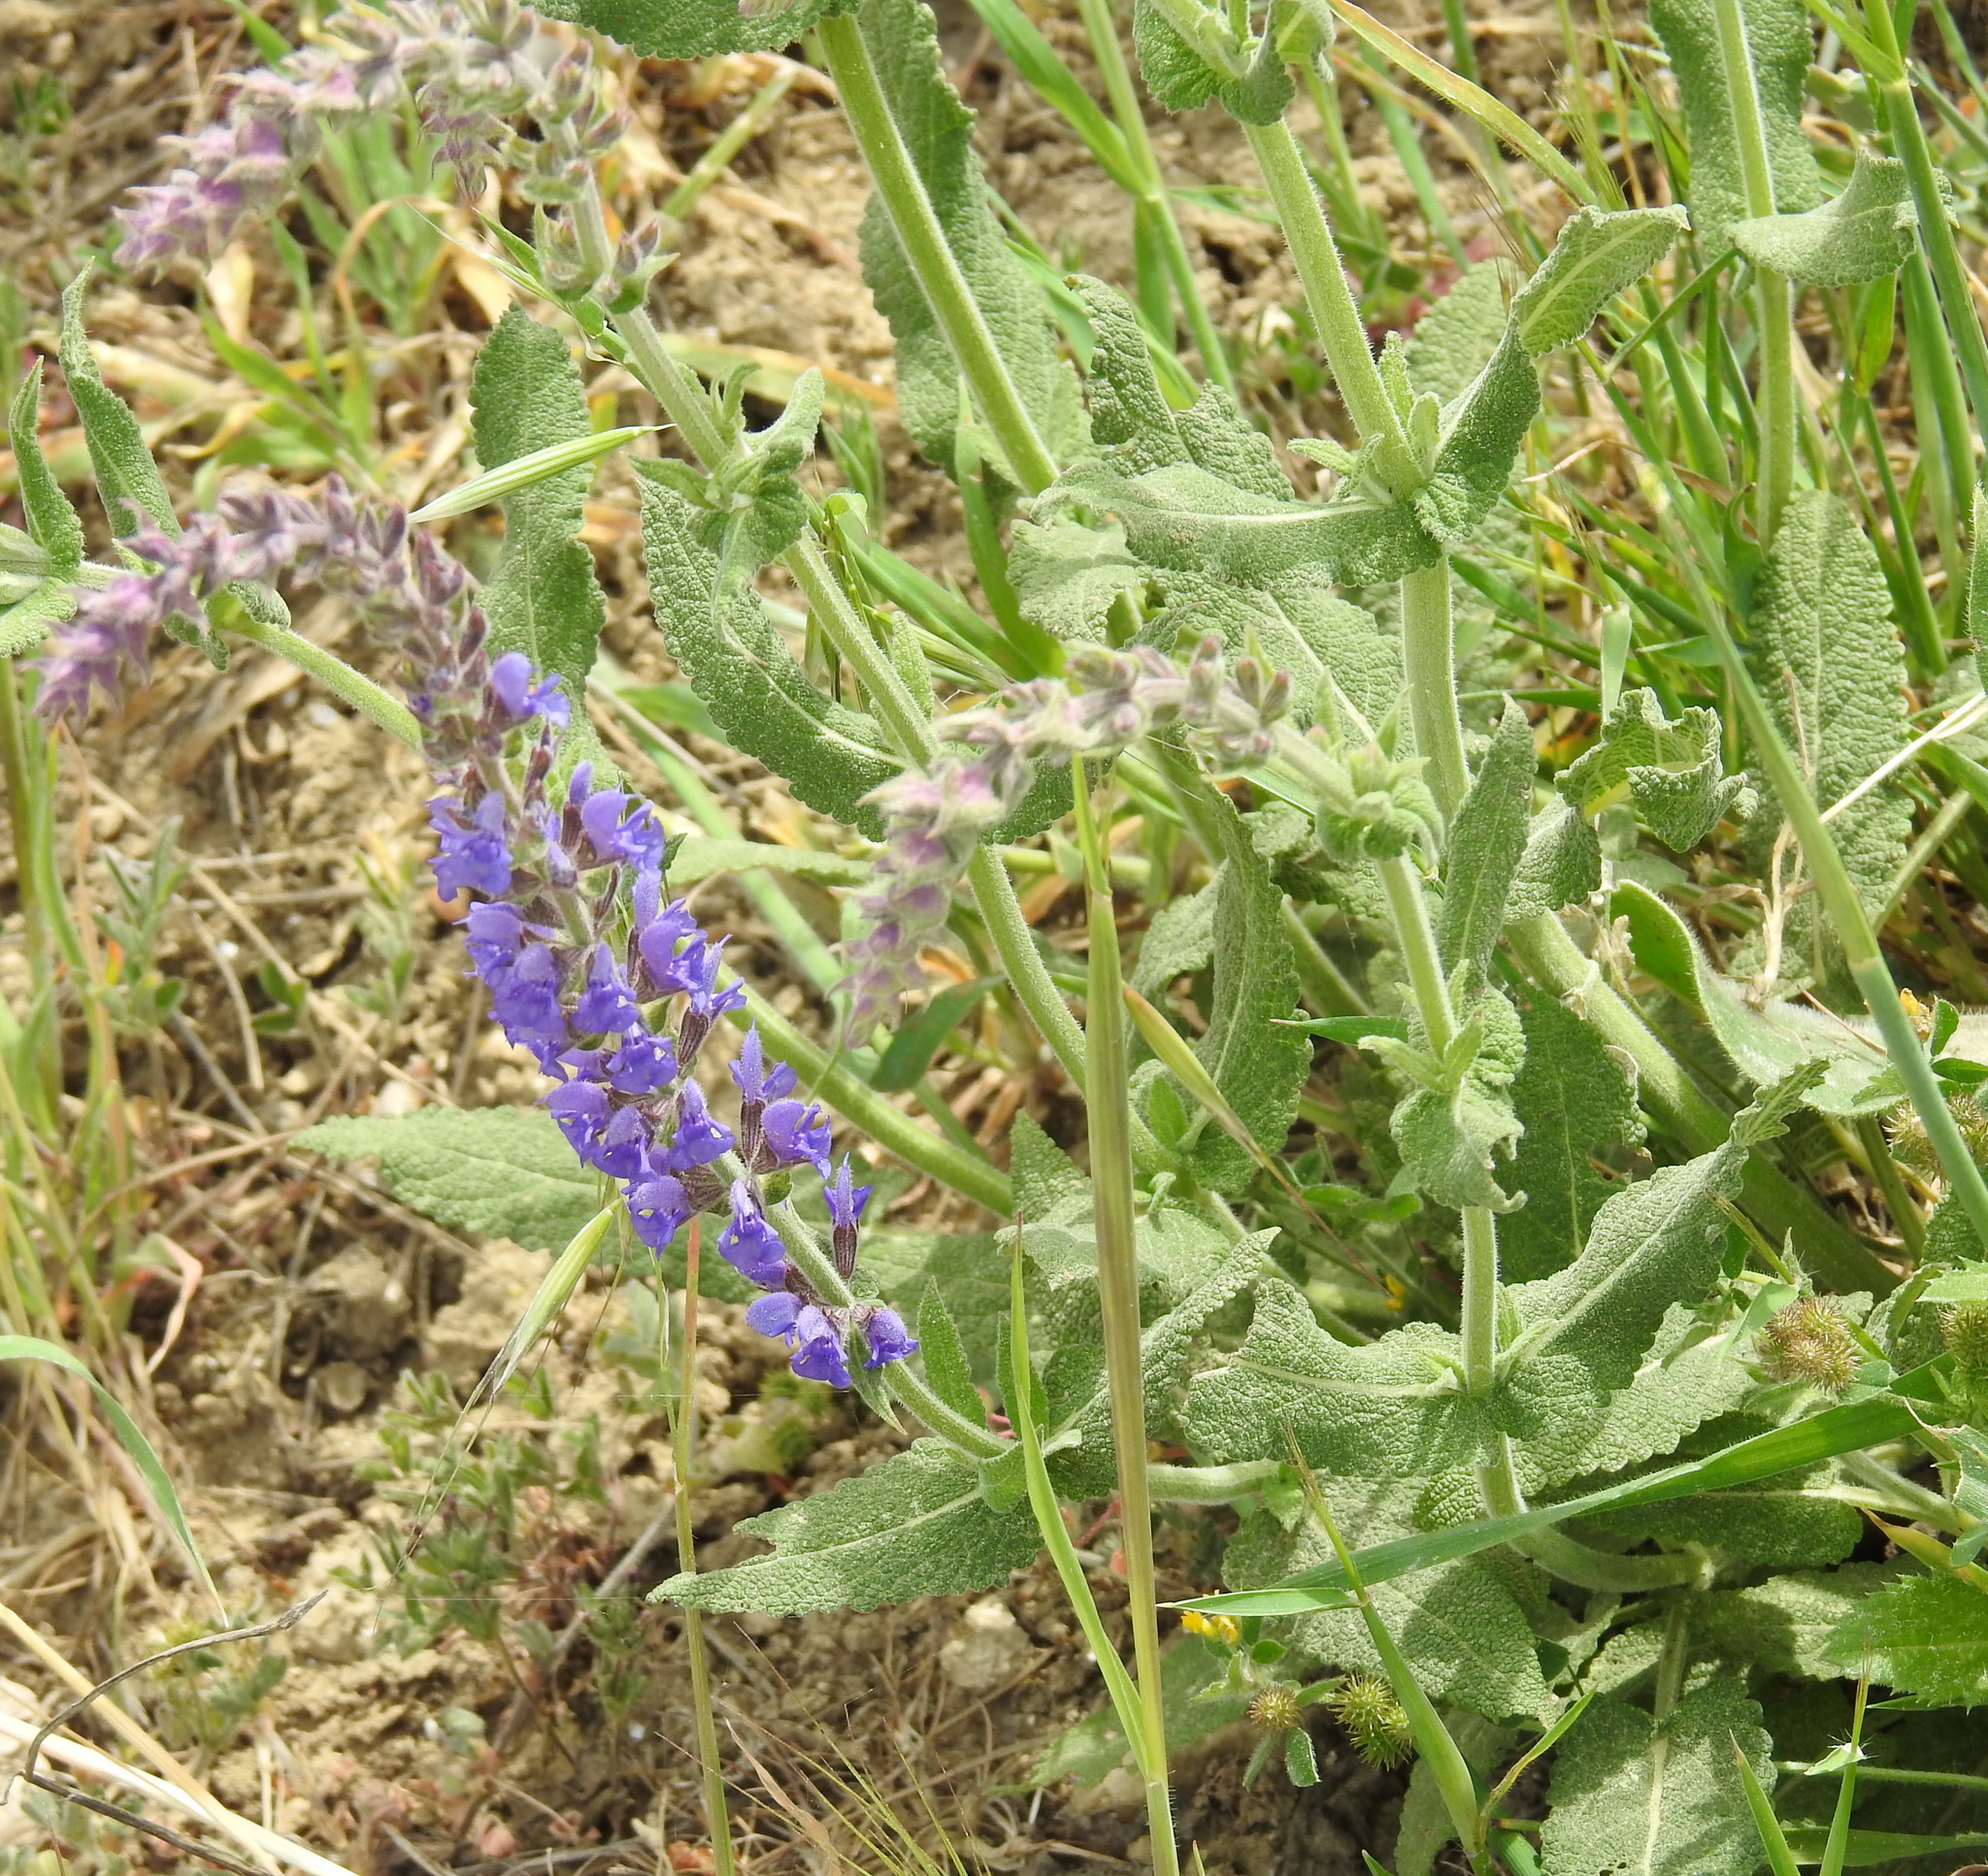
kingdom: Plantae
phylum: Tracheophyta
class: Magnoliopsida
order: Lamiales
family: Lamiaceae
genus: Salvia
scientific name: Salvia nemorosa
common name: Balkan clary
